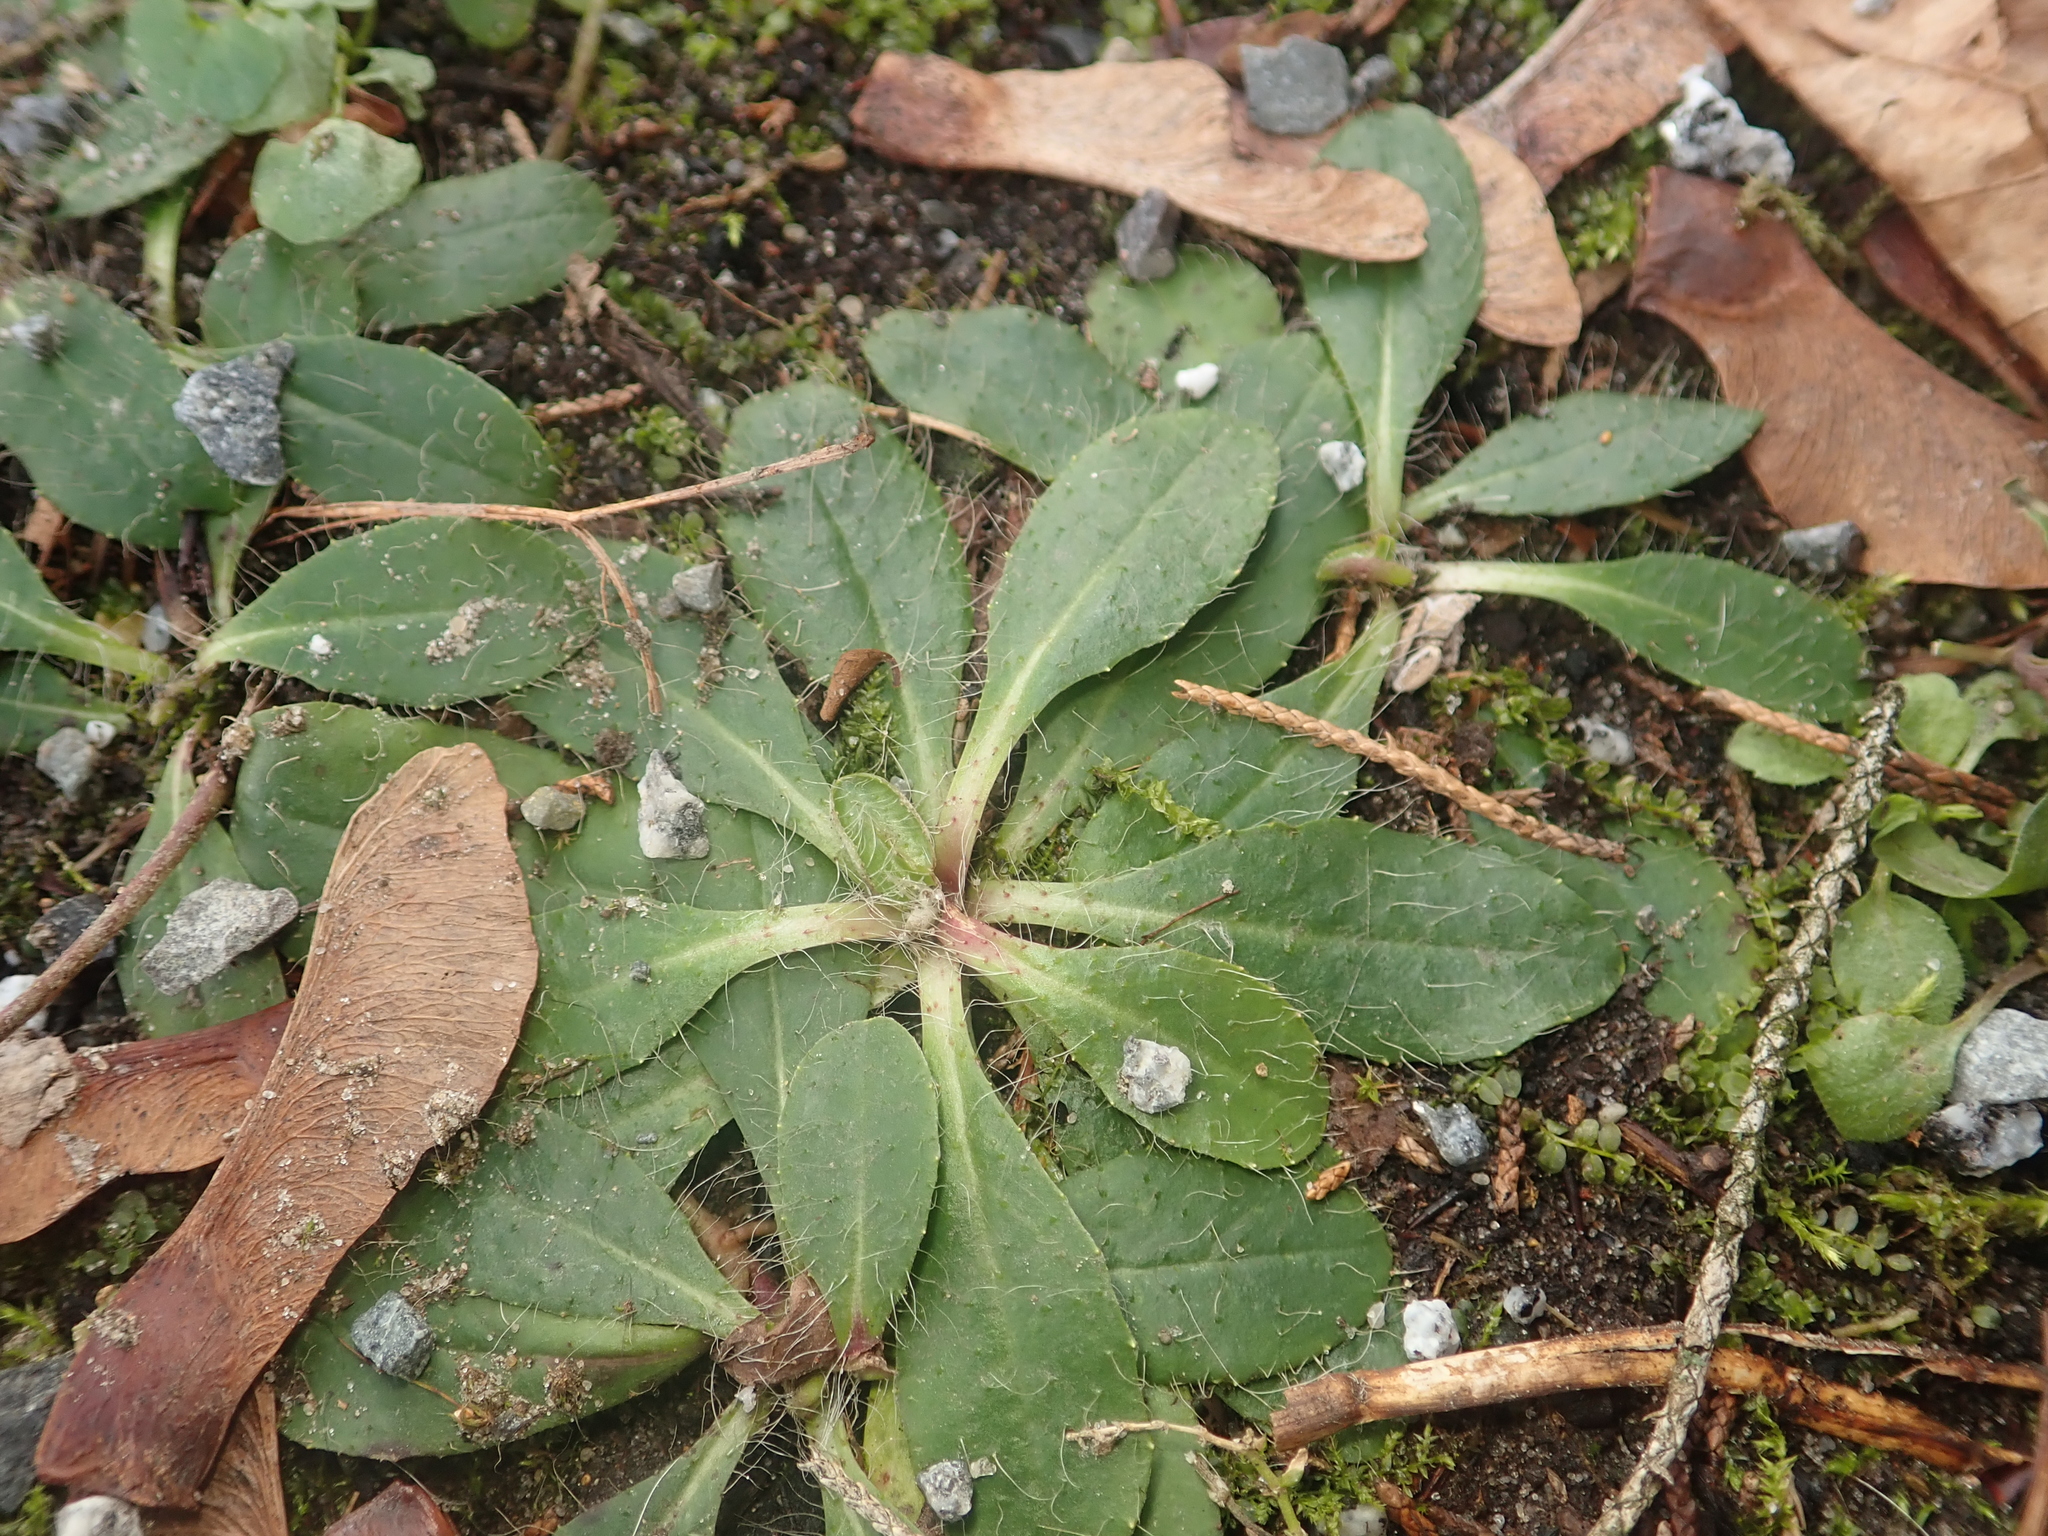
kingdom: Plantae
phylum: Tracheophyta
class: Magnoliopsida
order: Asterales
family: Asteraceae
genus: Pilosella
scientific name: Pilosella officinarum
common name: Mouse-ear hawkweed
